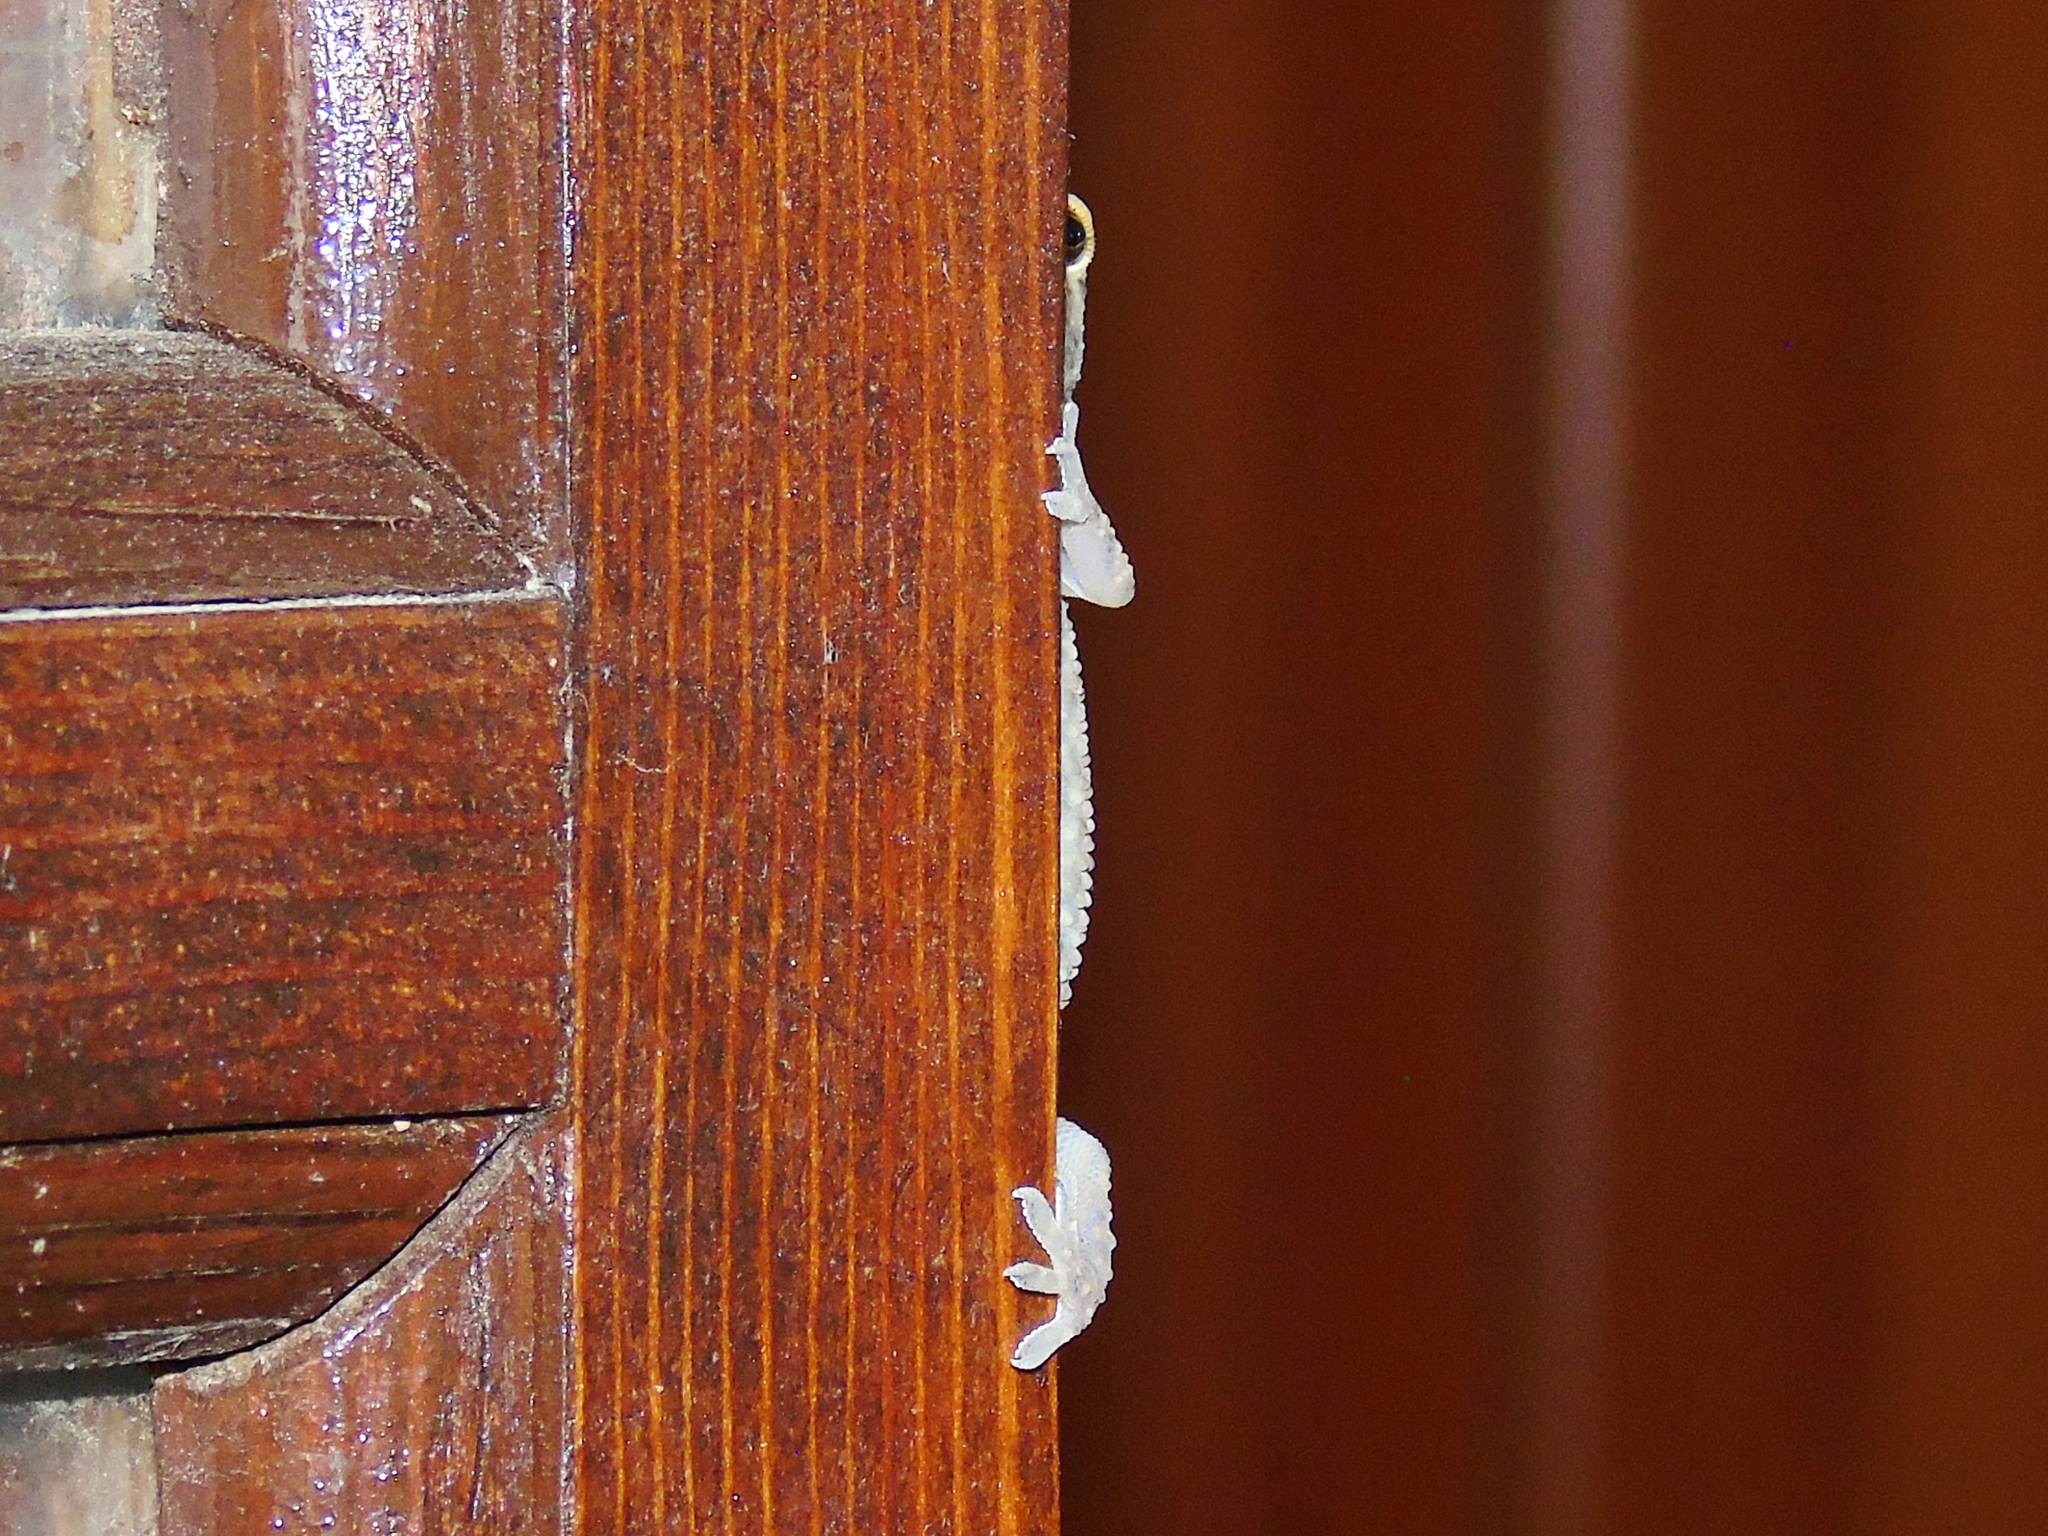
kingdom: Animalia
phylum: Chordata
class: Squamata
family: Gekkonidae
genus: Hemidactylus
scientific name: Hemidactylus turcicus
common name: Turkish gecko
